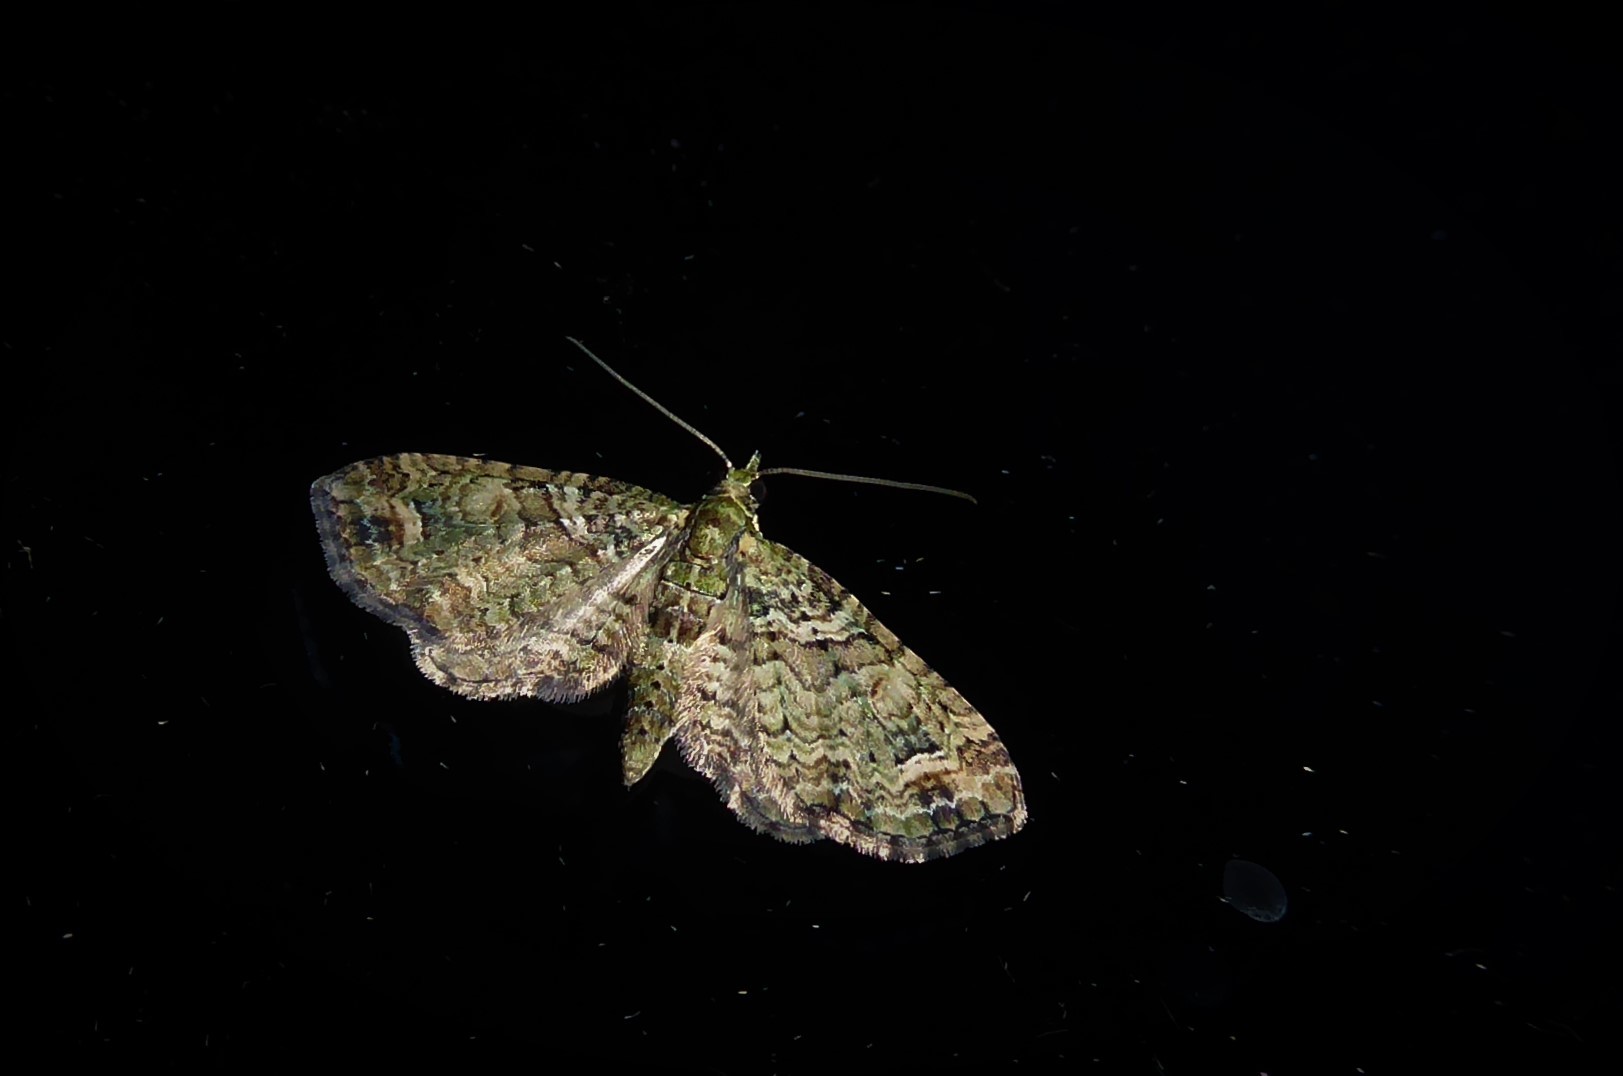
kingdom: Animalia
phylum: Arthropoda
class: Insecta
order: Lepidoptera
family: Geometridae
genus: Idaea
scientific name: Idaea mutanda
